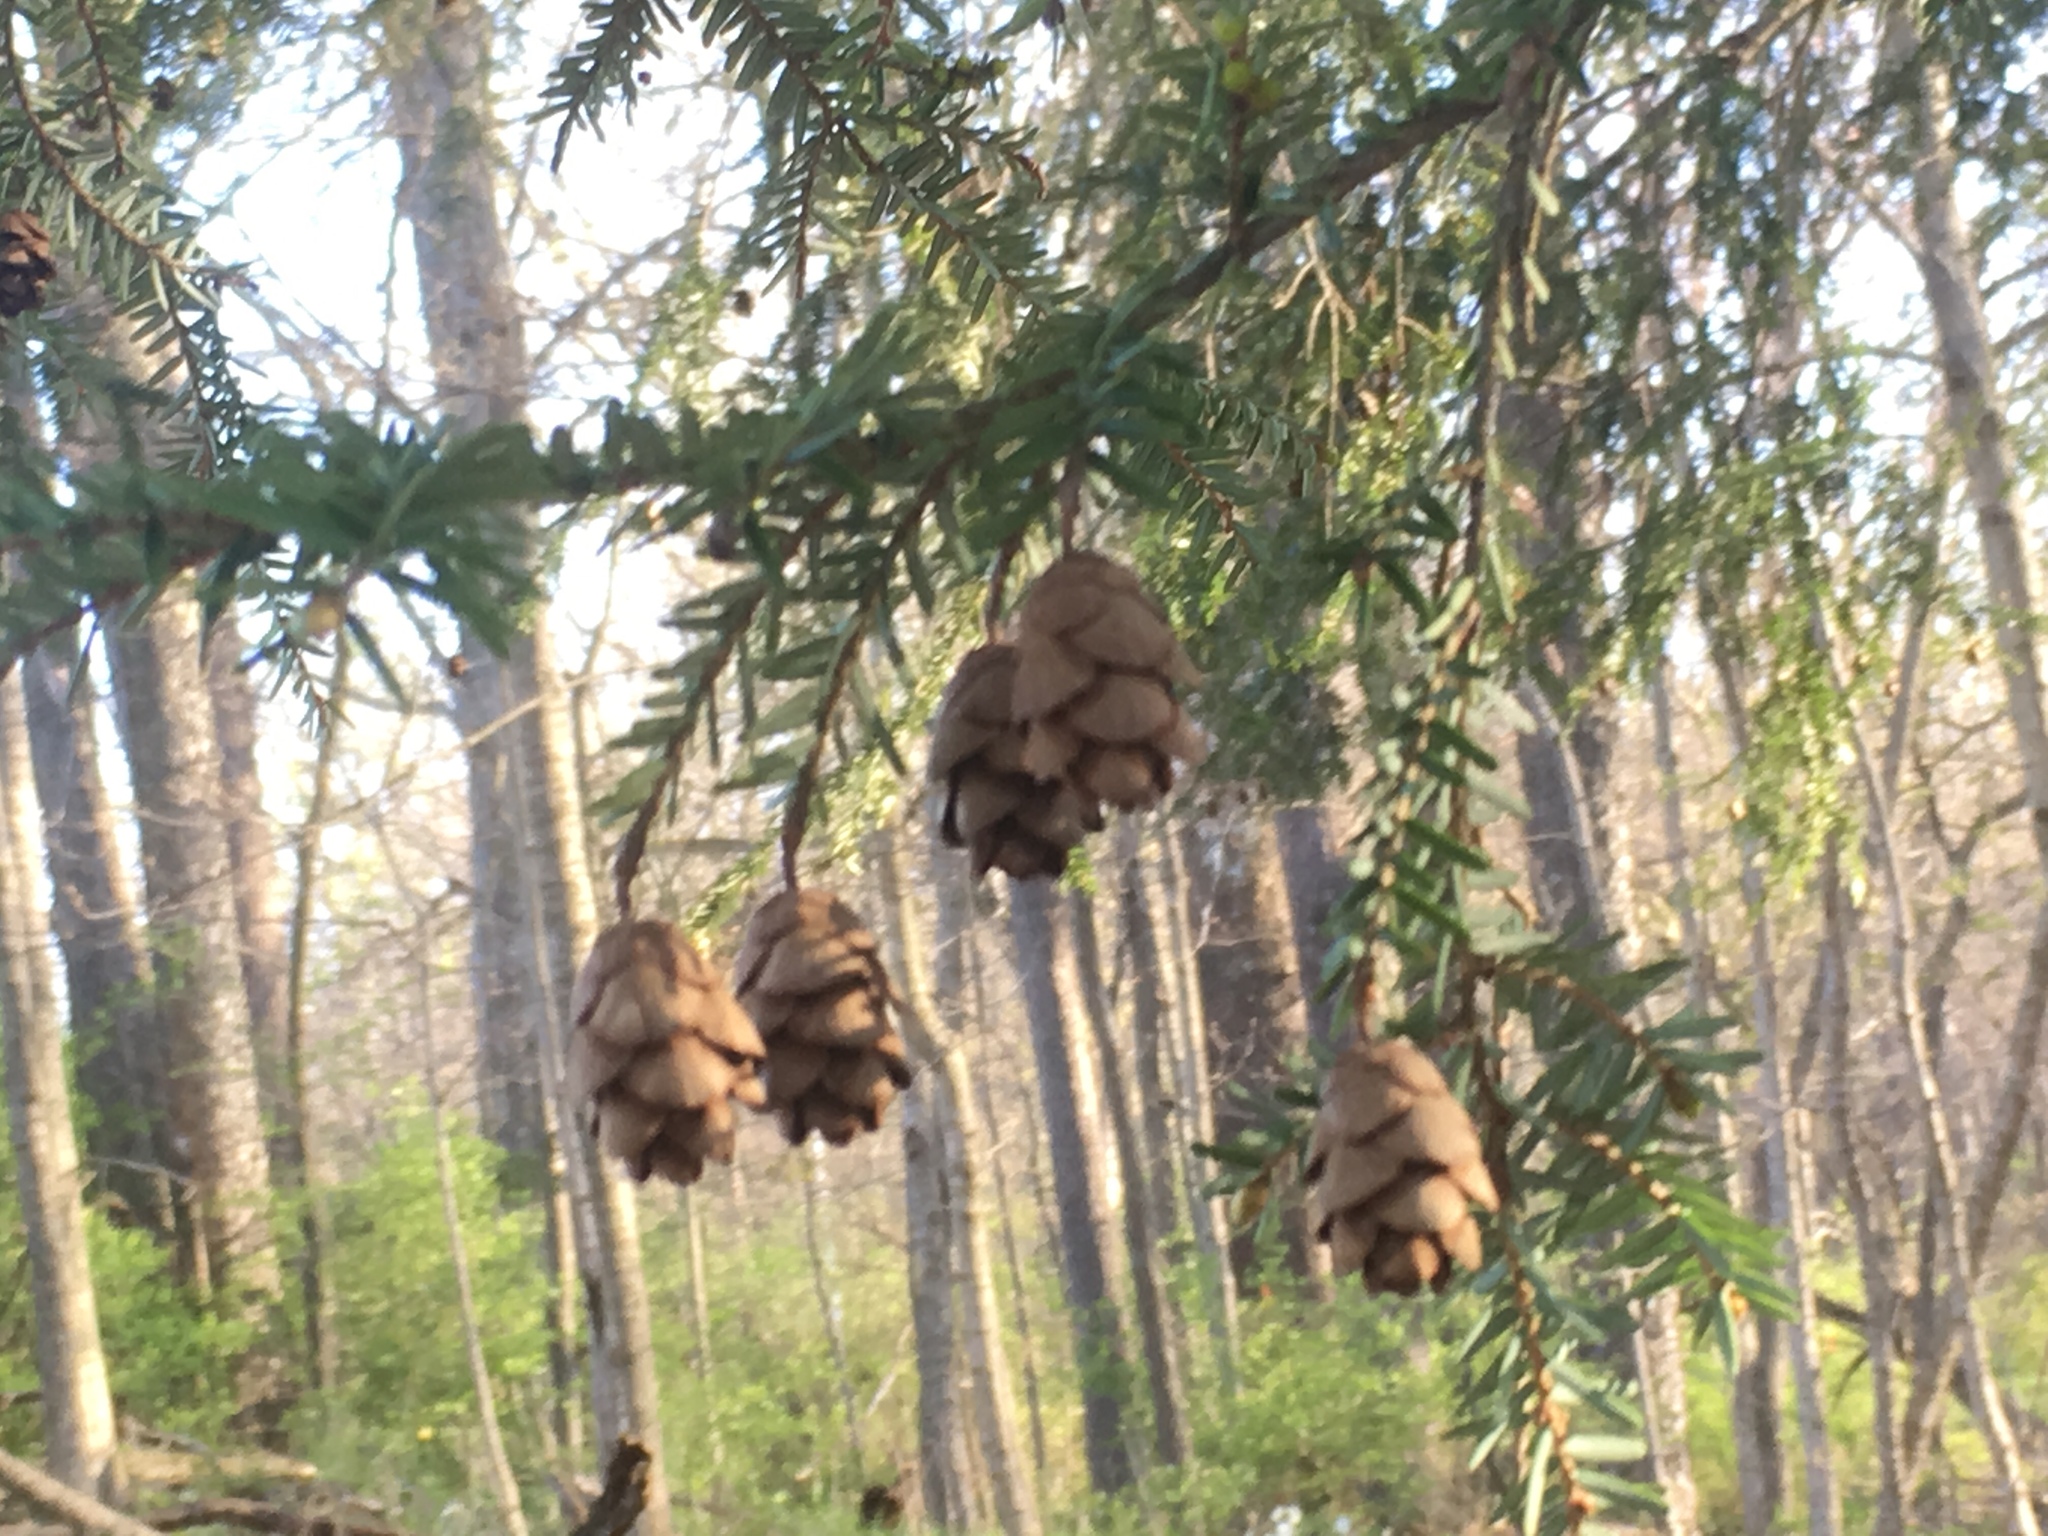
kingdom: Plantae
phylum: Tracheophyta
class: Pinopsida
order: Pinales
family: Pinaceae
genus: Tsuga
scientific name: Tsuga canadensis
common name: Eastern hemlock
